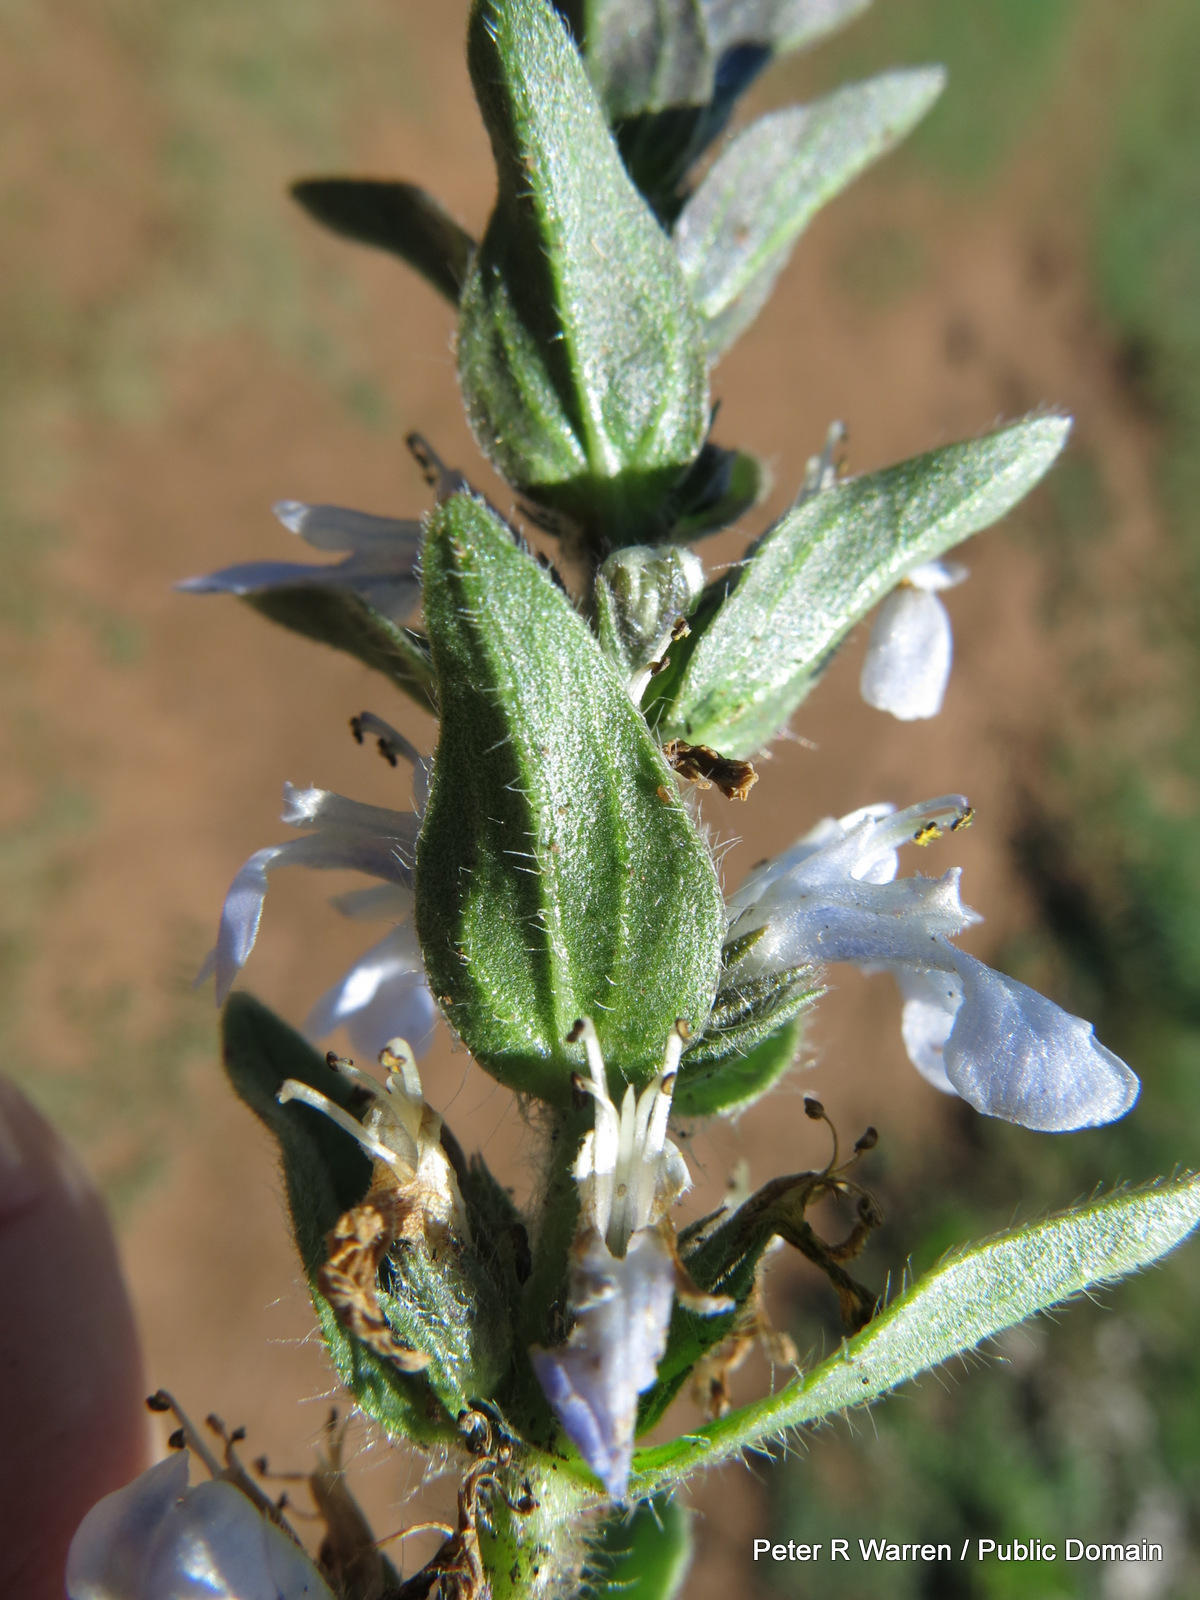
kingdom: Plantae
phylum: Tracheophyta
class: Magnoliopsida
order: Lamiales
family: Lamiaceae
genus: Ajuga
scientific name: Ajuga ophrydis
